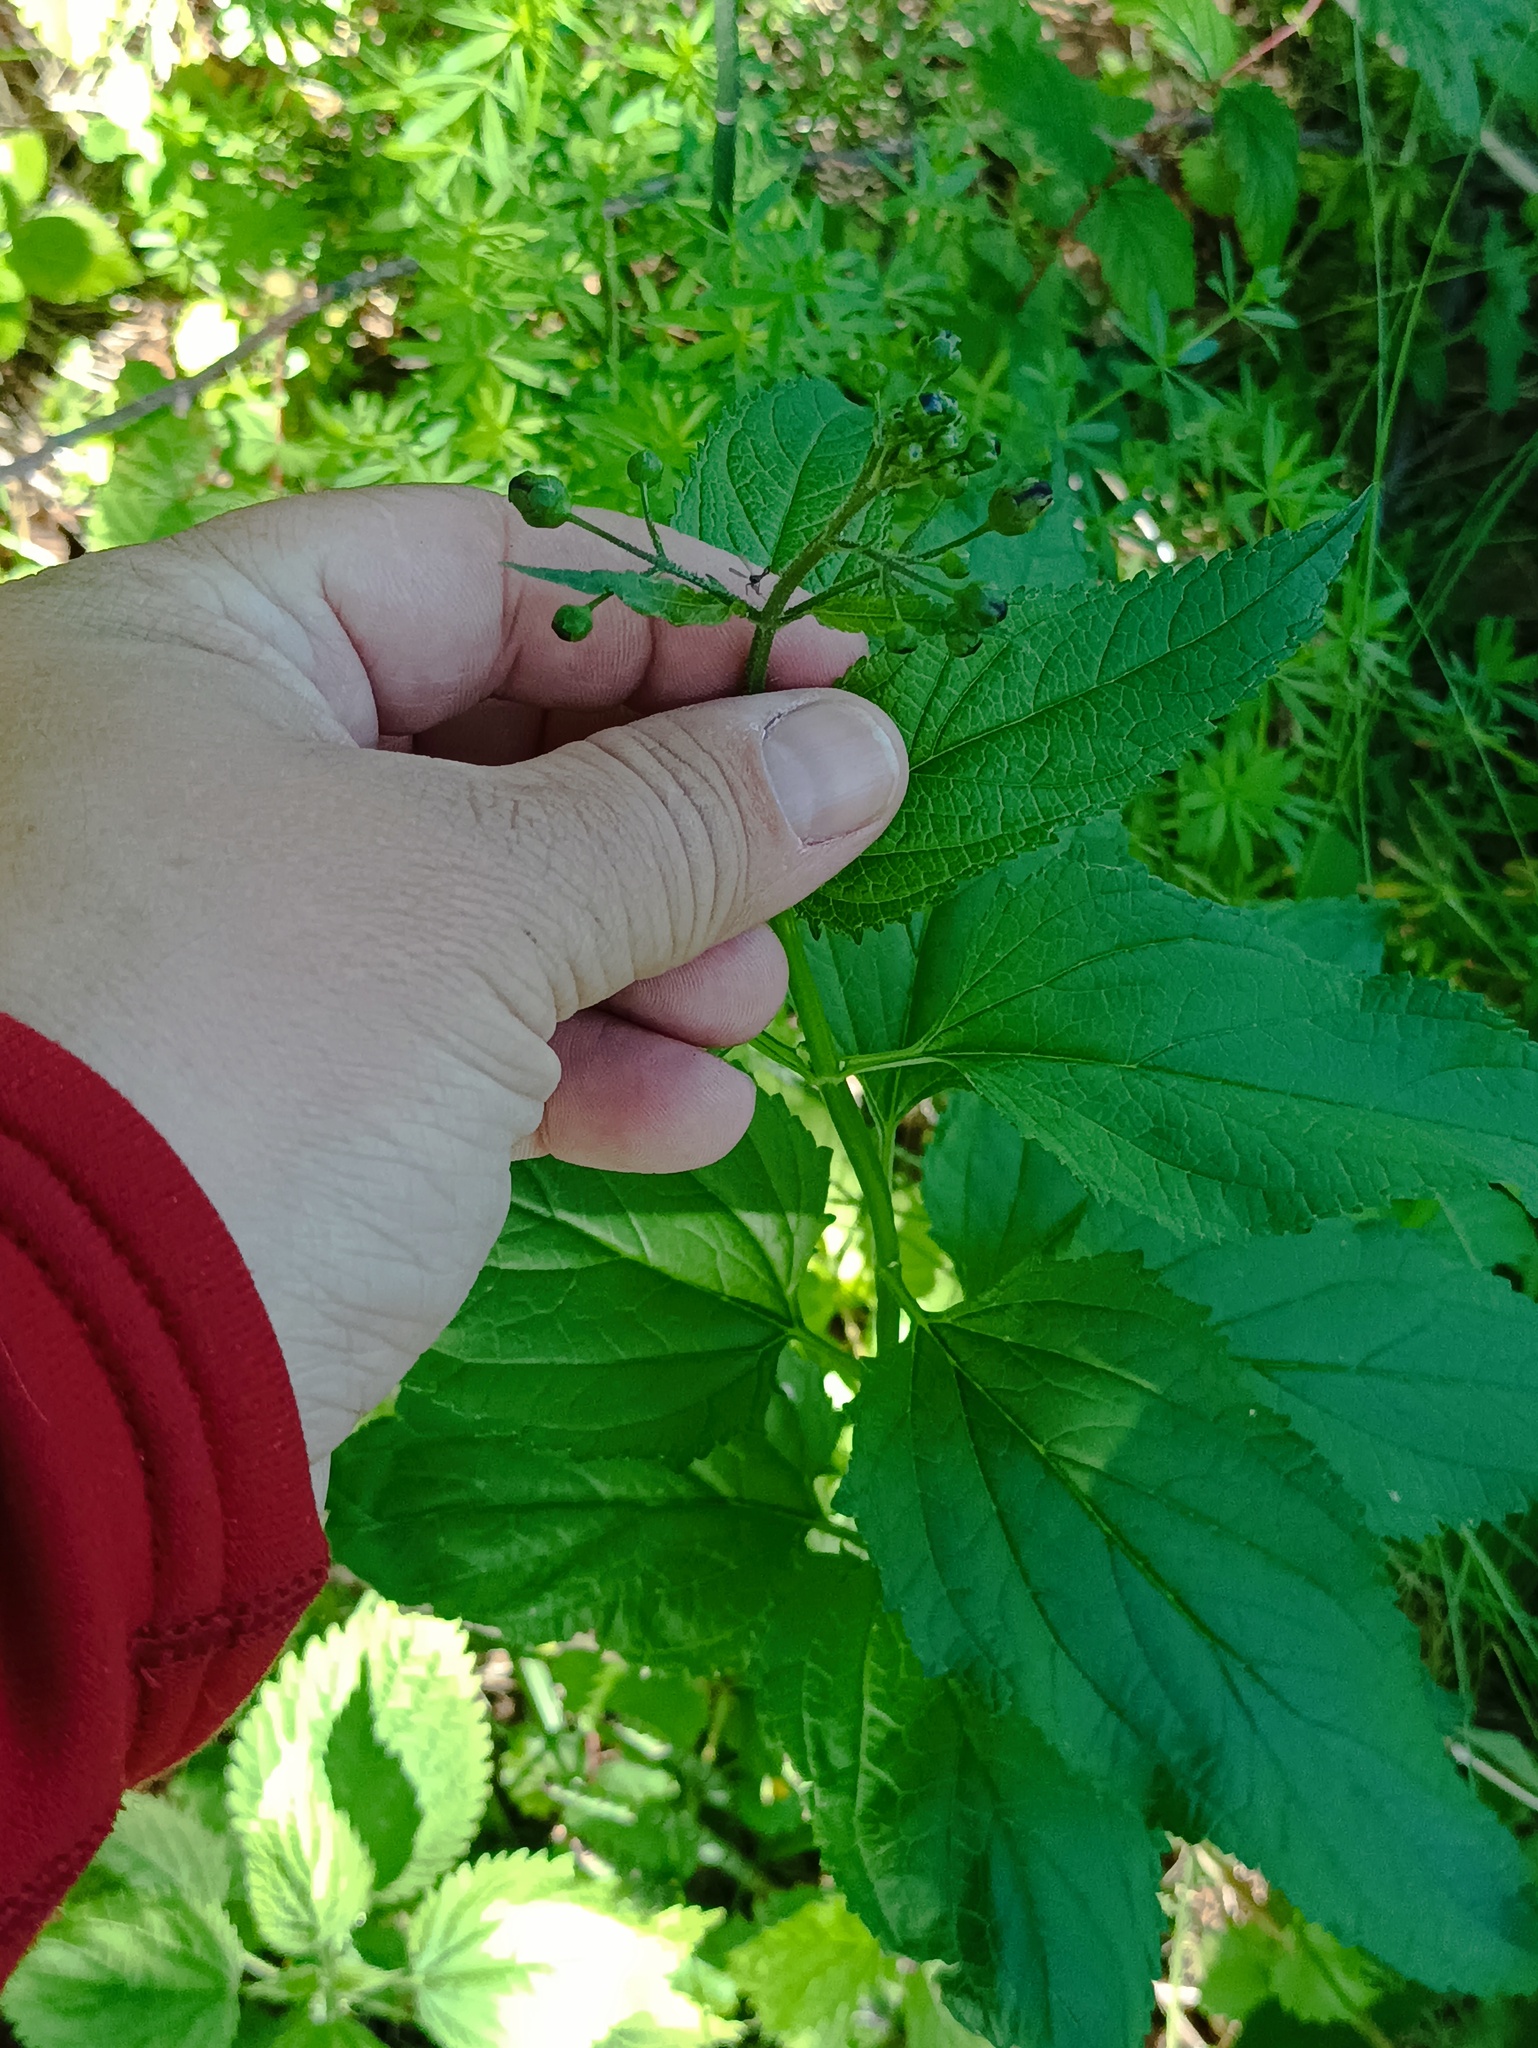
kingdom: Plantae
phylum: Tracheophyta
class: Magnoliopsida
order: Lamiales
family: Scrophulariaceae
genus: Scrophularia
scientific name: Scrophularia nodosa
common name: Common figwort
